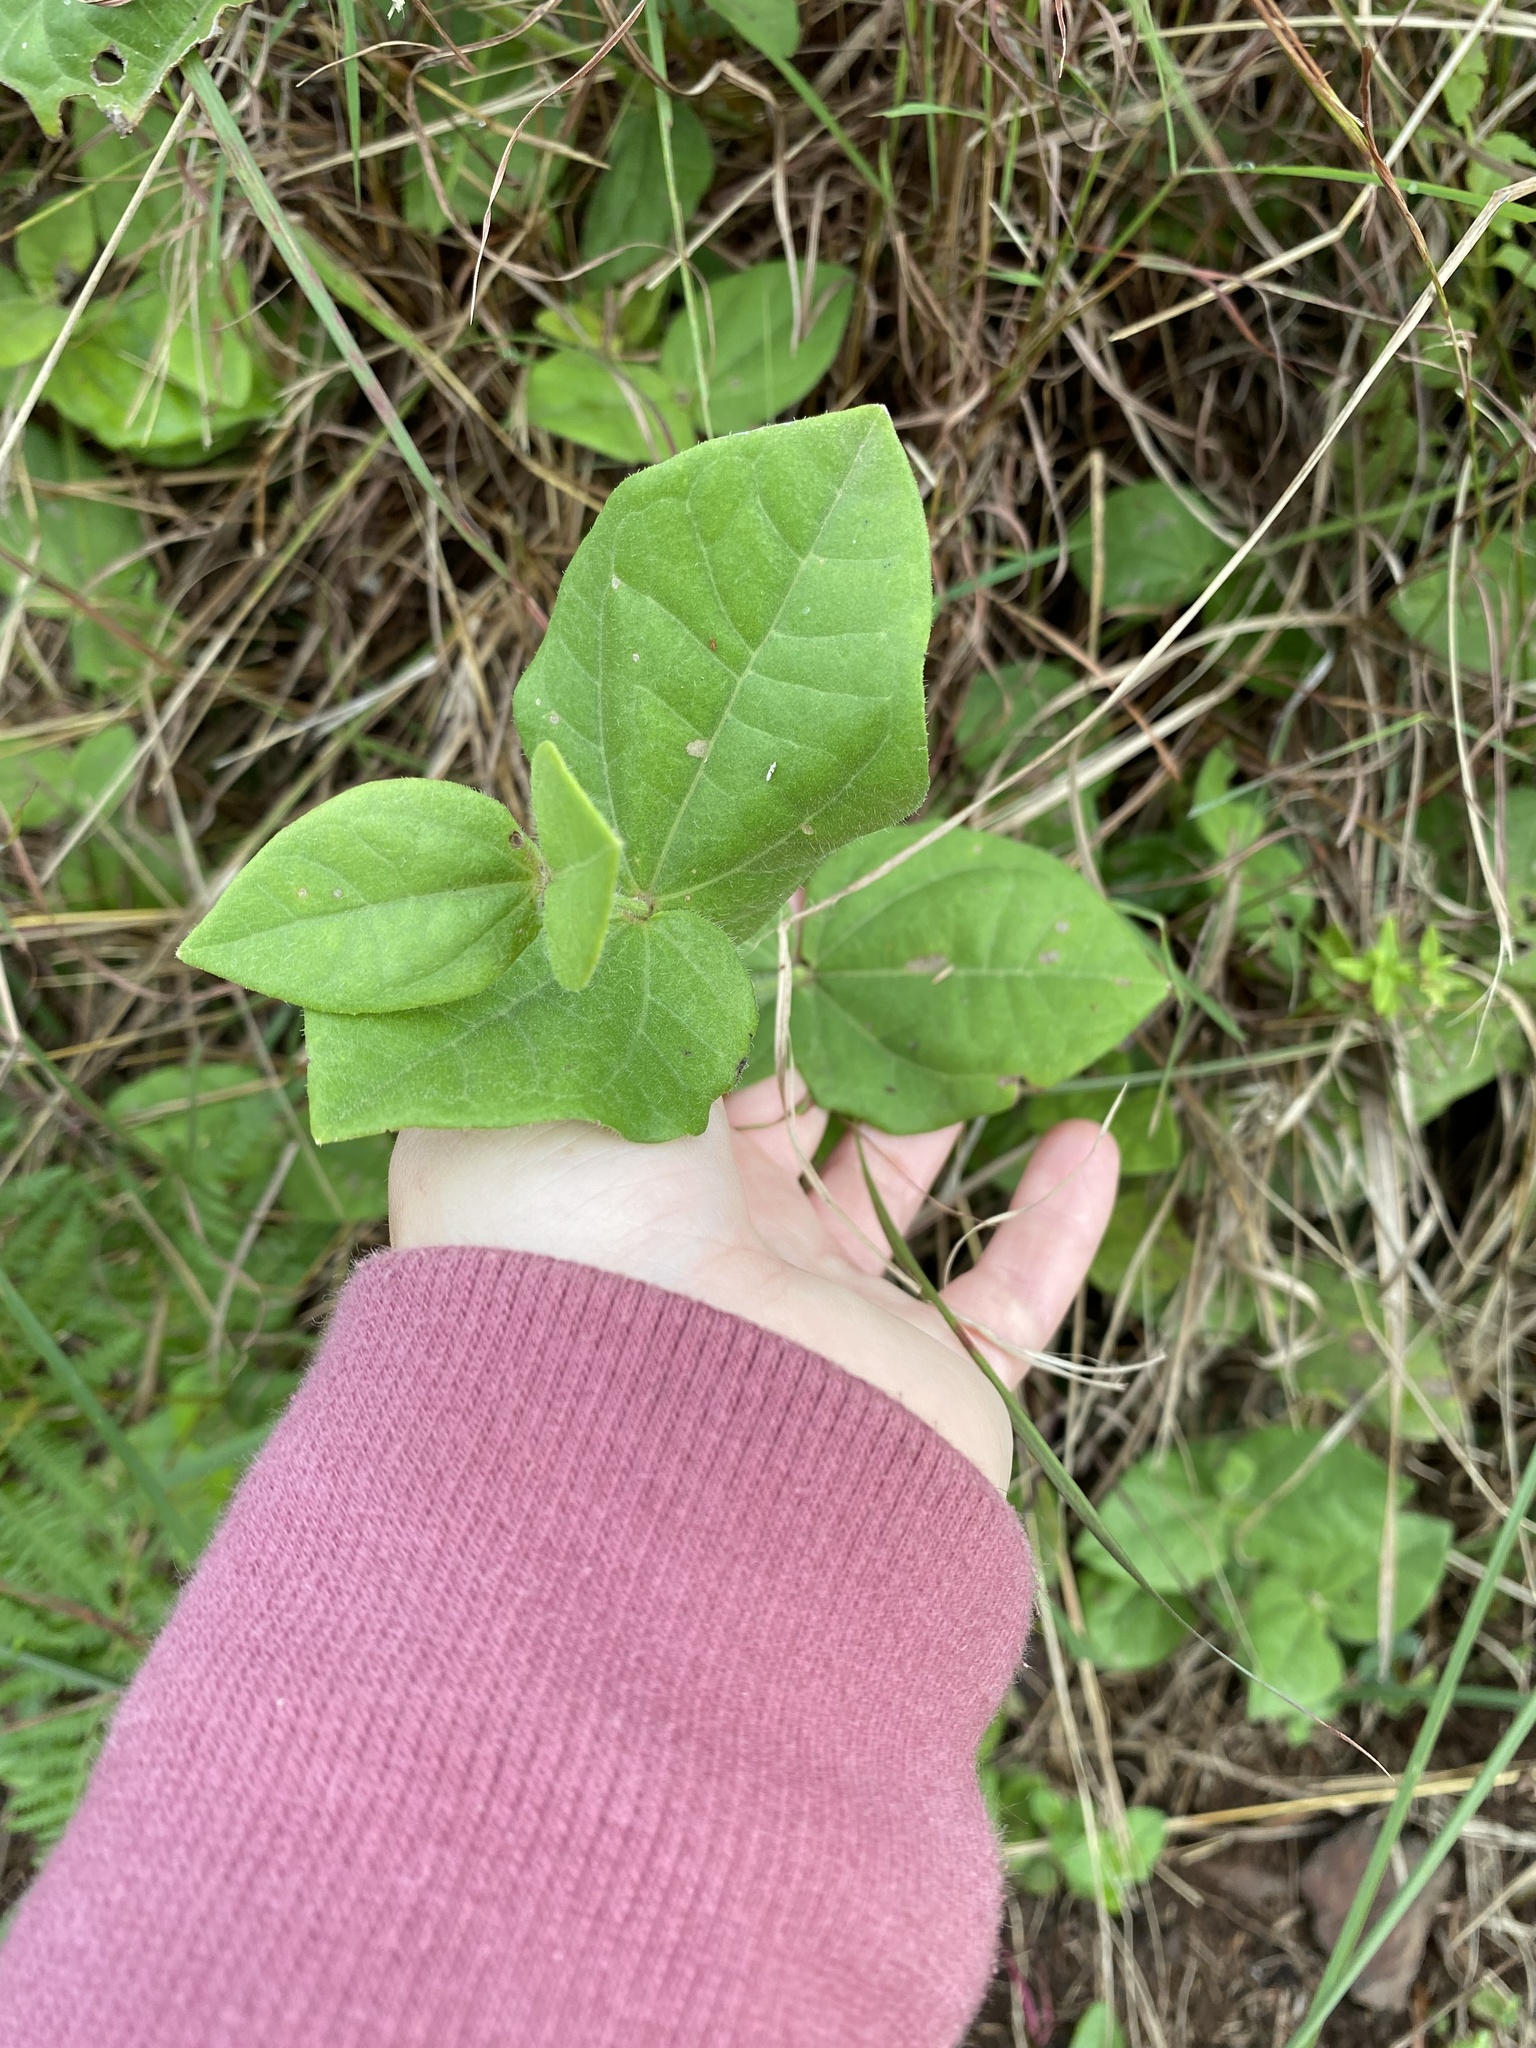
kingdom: Plantae
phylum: Tracheophyta
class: Magnoliopsida
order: Lamiales
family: Acanthaceae
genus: Thunbergia
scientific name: Thunbergia natalensis
